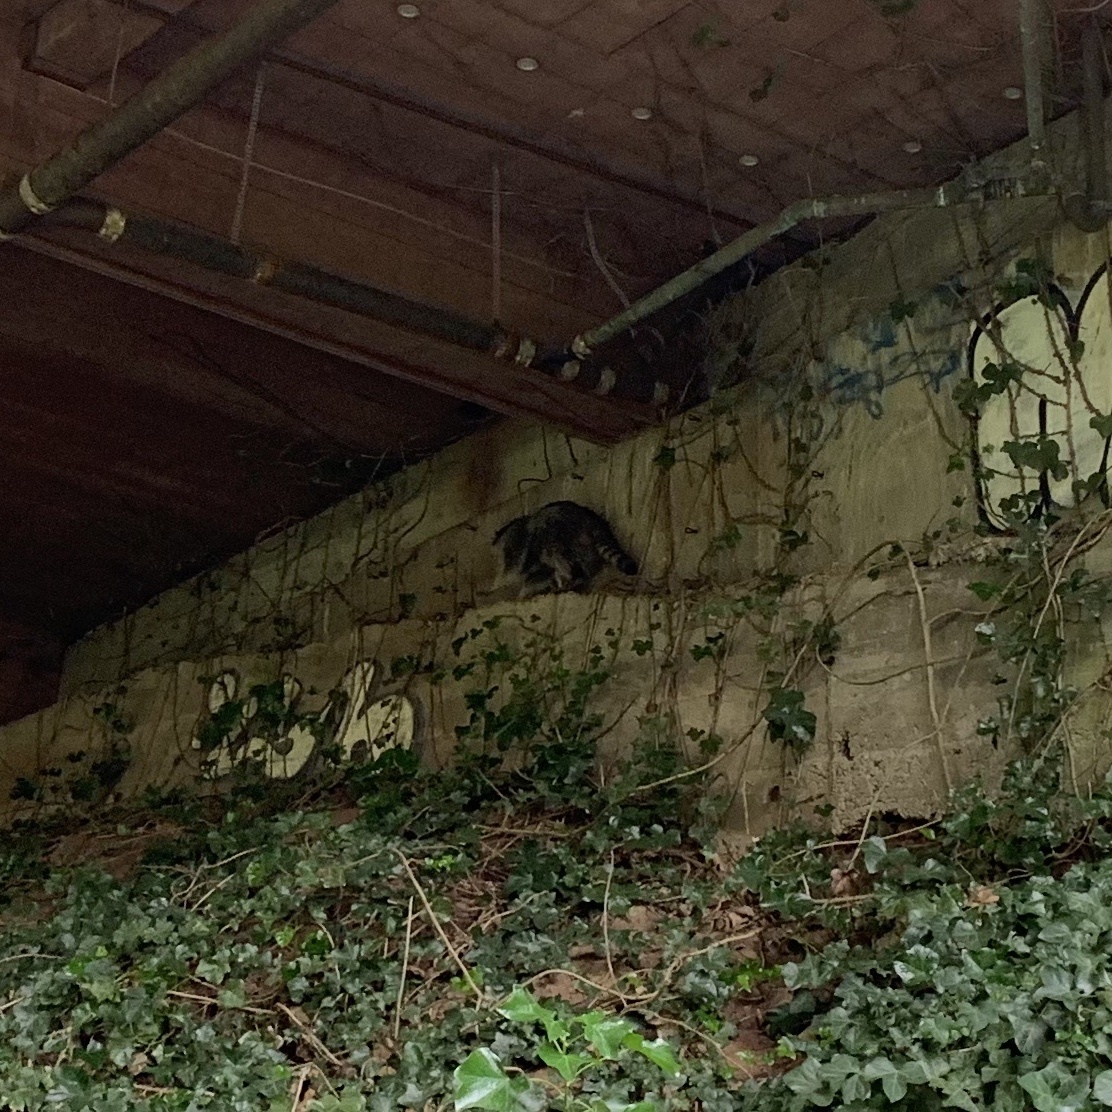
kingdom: Animalia
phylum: Chordata
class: Mammalia
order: Carnivora
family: Procyonidae
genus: Procyon
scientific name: Procyon lotor
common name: Raccoon
